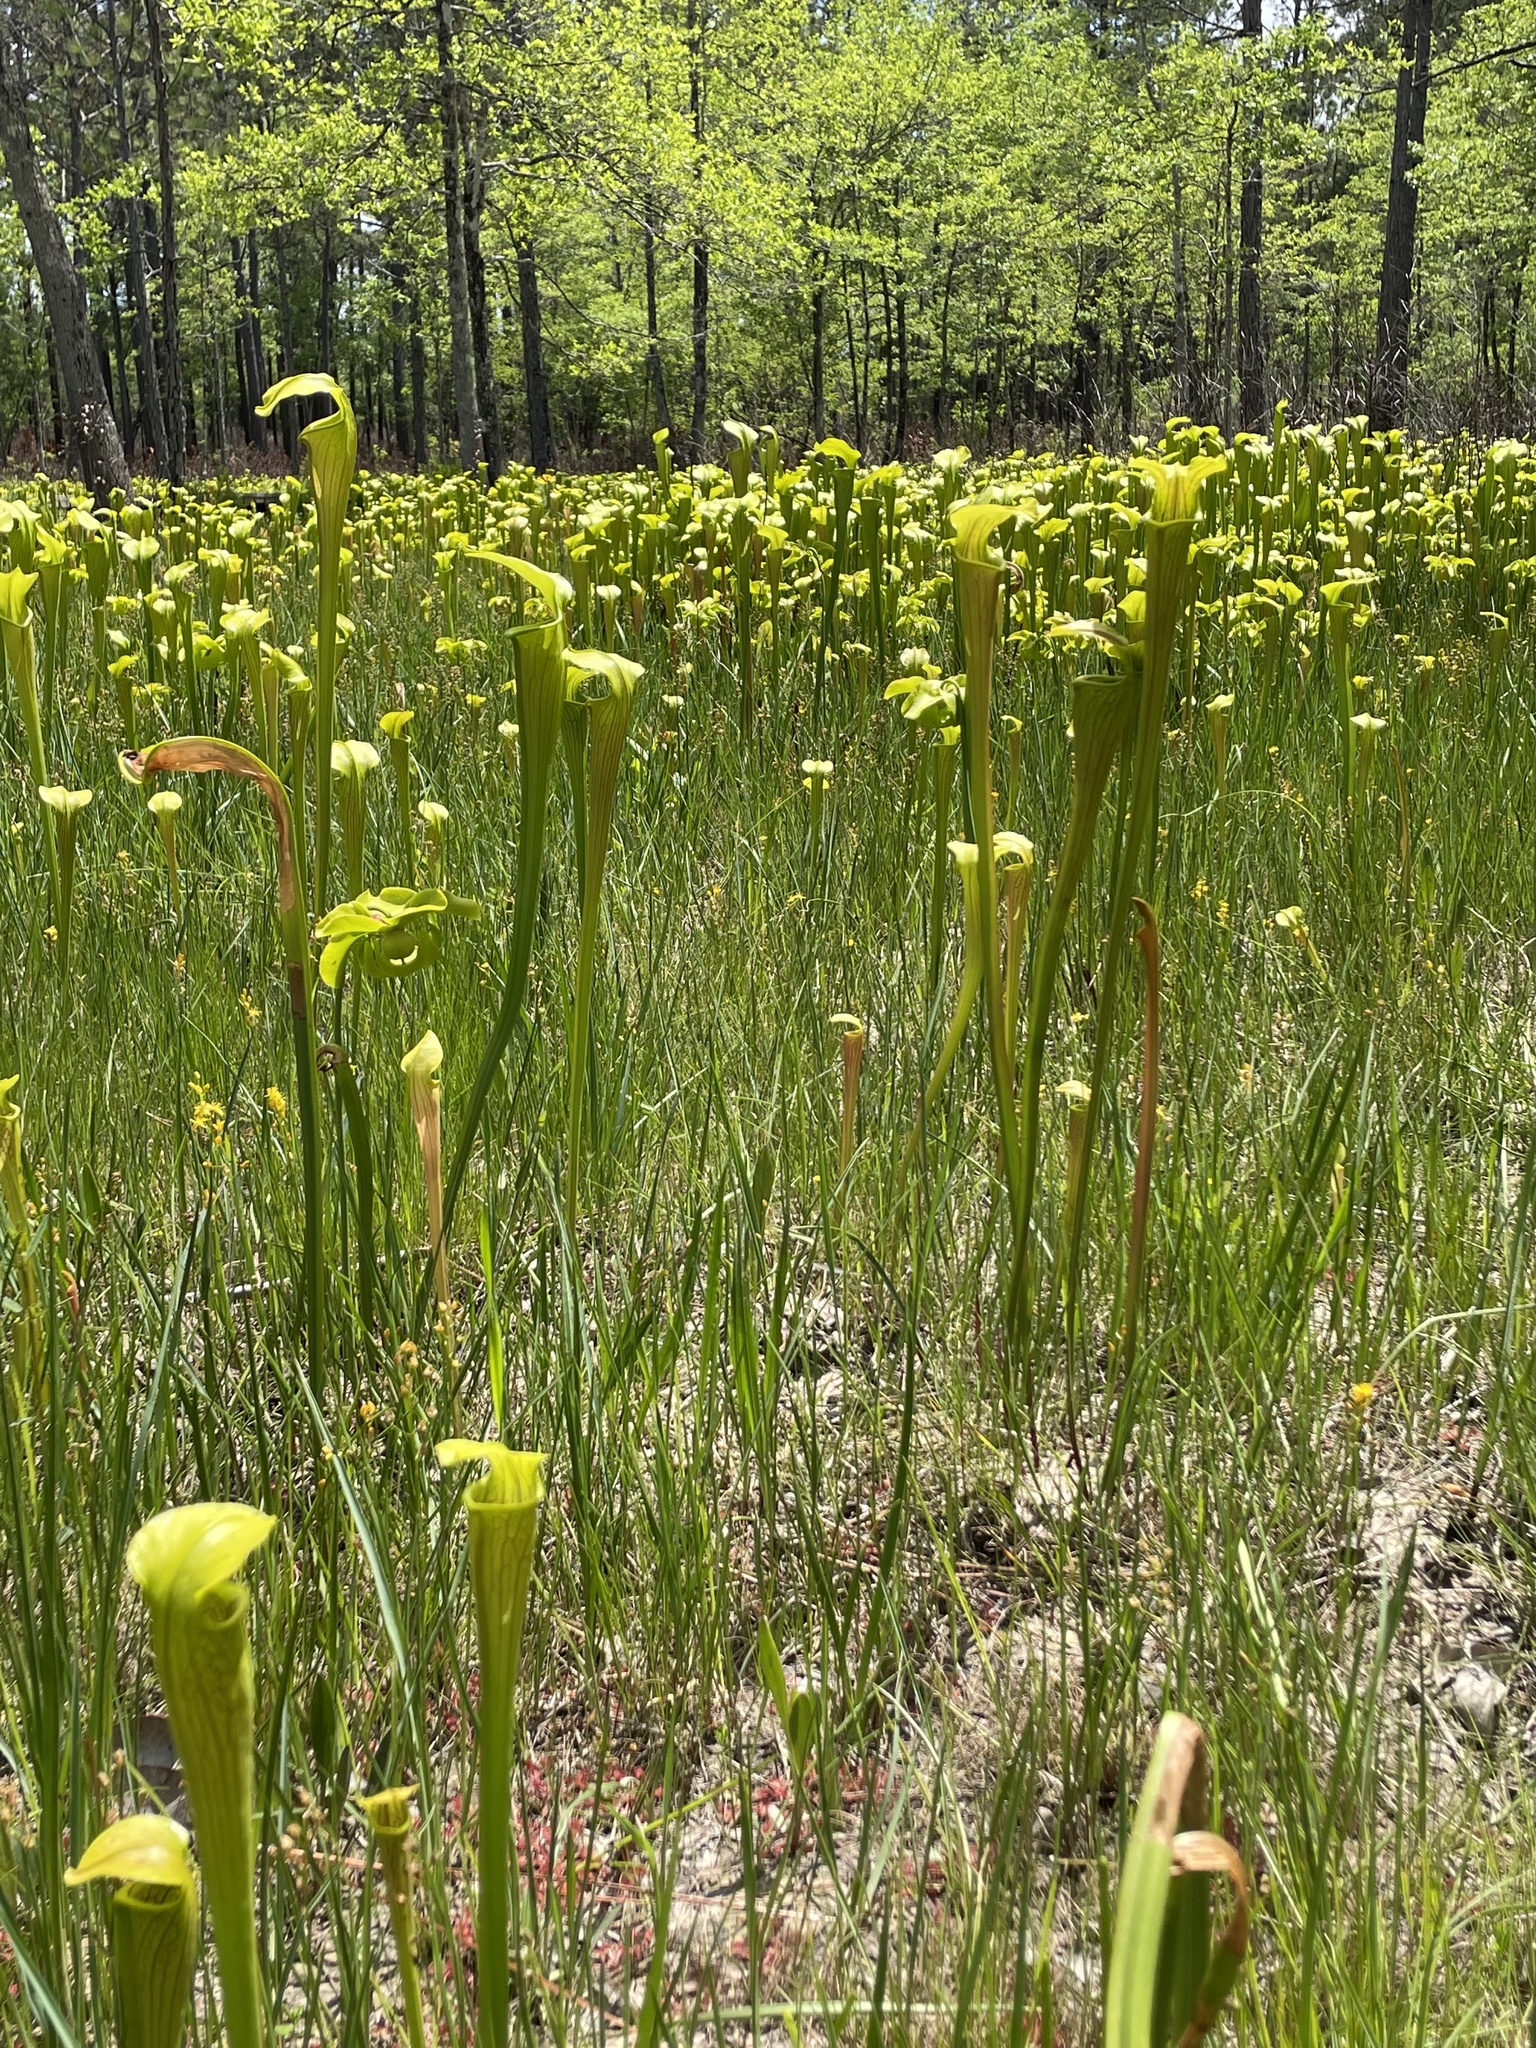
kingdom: Plantae
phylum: Tracheophyta
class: Magnoliopsida
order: Ericales
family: Sarraceniaceae
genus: Sarracenia
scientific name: Sarracenia alata
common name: Yellow trumpets
